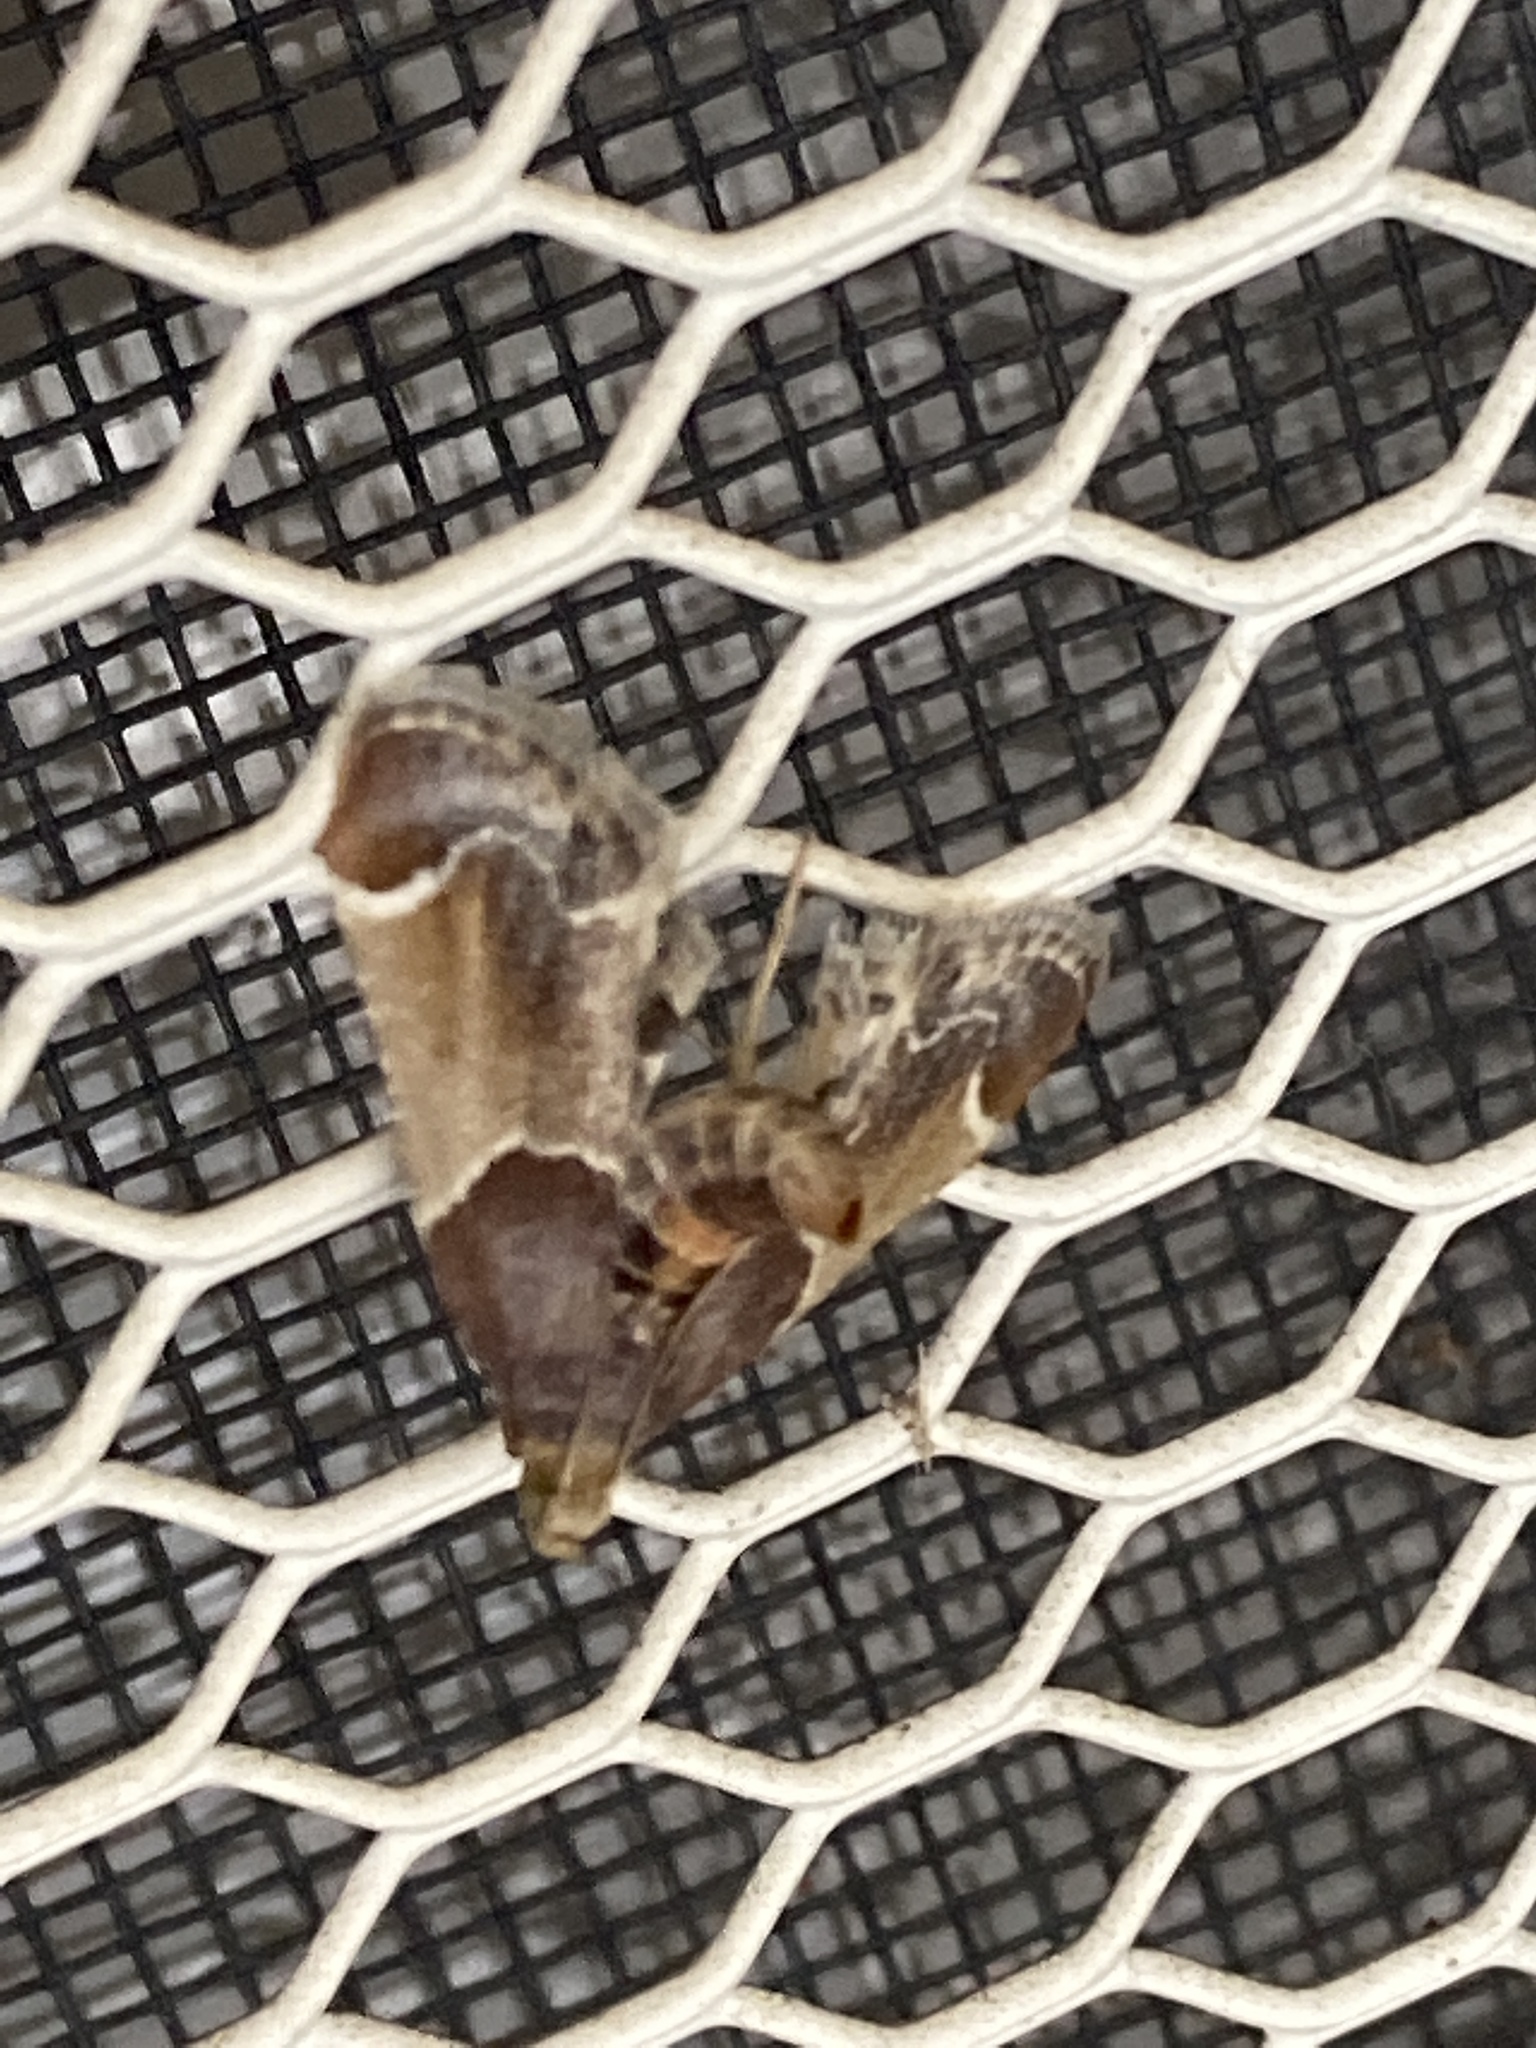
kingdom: Animalia
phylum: Arthropoda
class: Insecta
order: Lepidoptera
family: Pyralidae
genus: Pyralis
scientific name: Pyralis farinalis
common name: Meal moth
